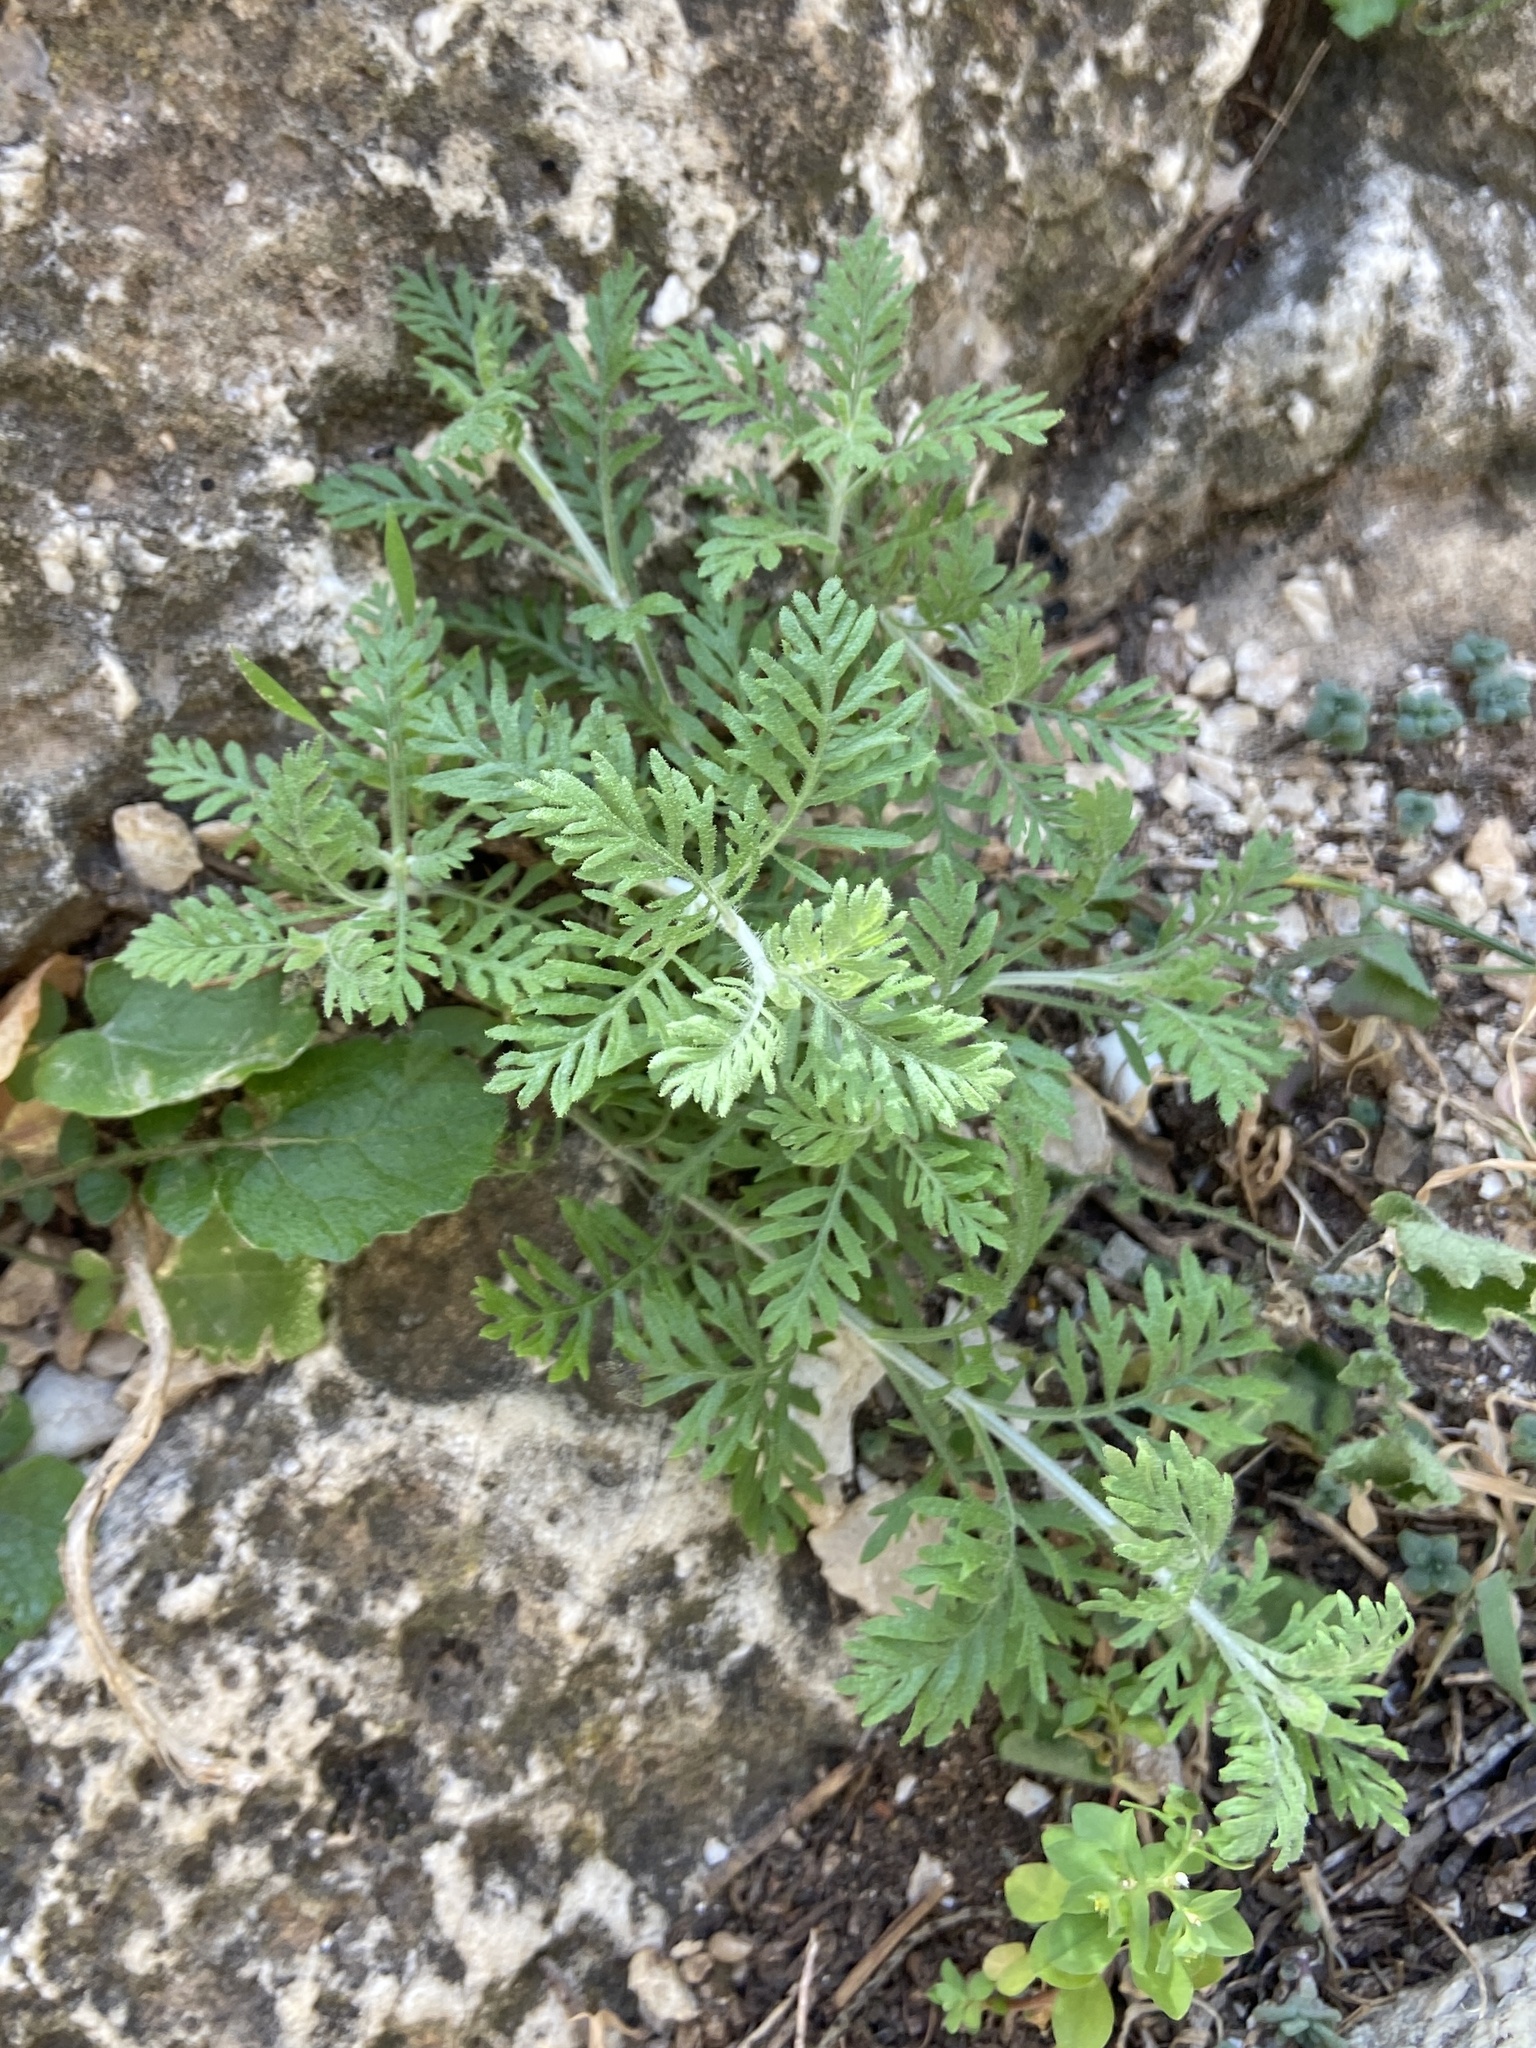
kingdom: Plantae
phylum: Tracheophyta
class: Magnoliopsida
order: Lamiales
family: Lamiaceae
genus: Lavandula
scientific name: Lavandula multifida
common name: Fern-leaf lavender
